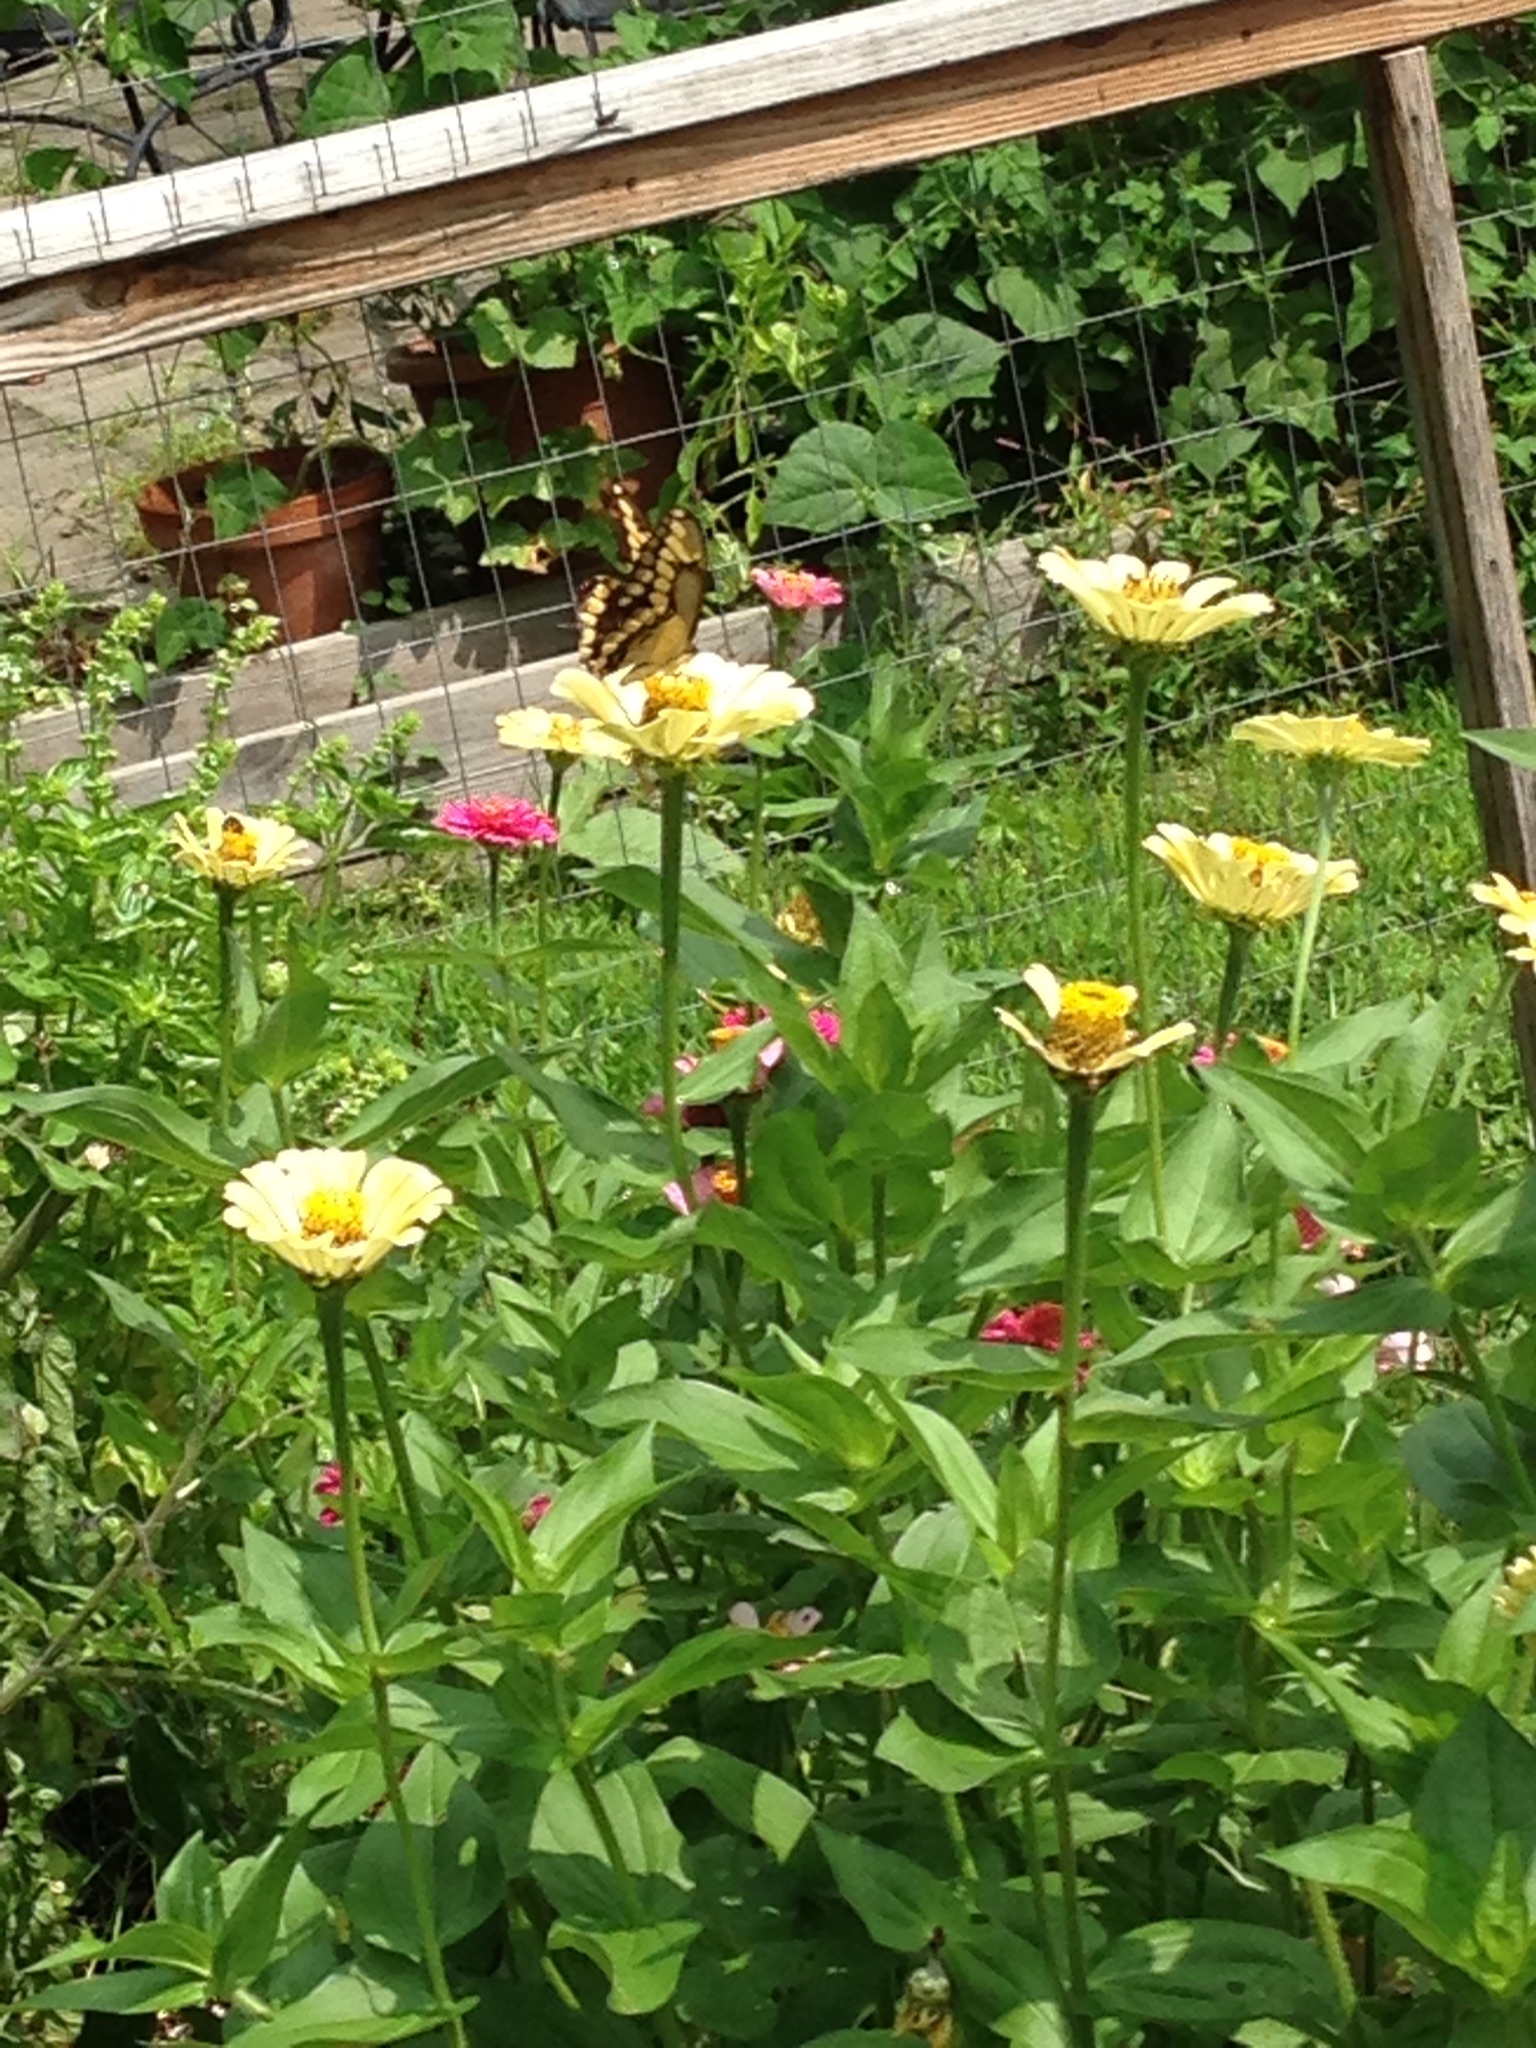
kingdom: Animalia
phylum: Arthropoda
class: Insecta
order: Lepidoptera
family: Papilionidae
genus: Papilio
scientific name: Papilio cresphontes
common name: Giant swallowtail
